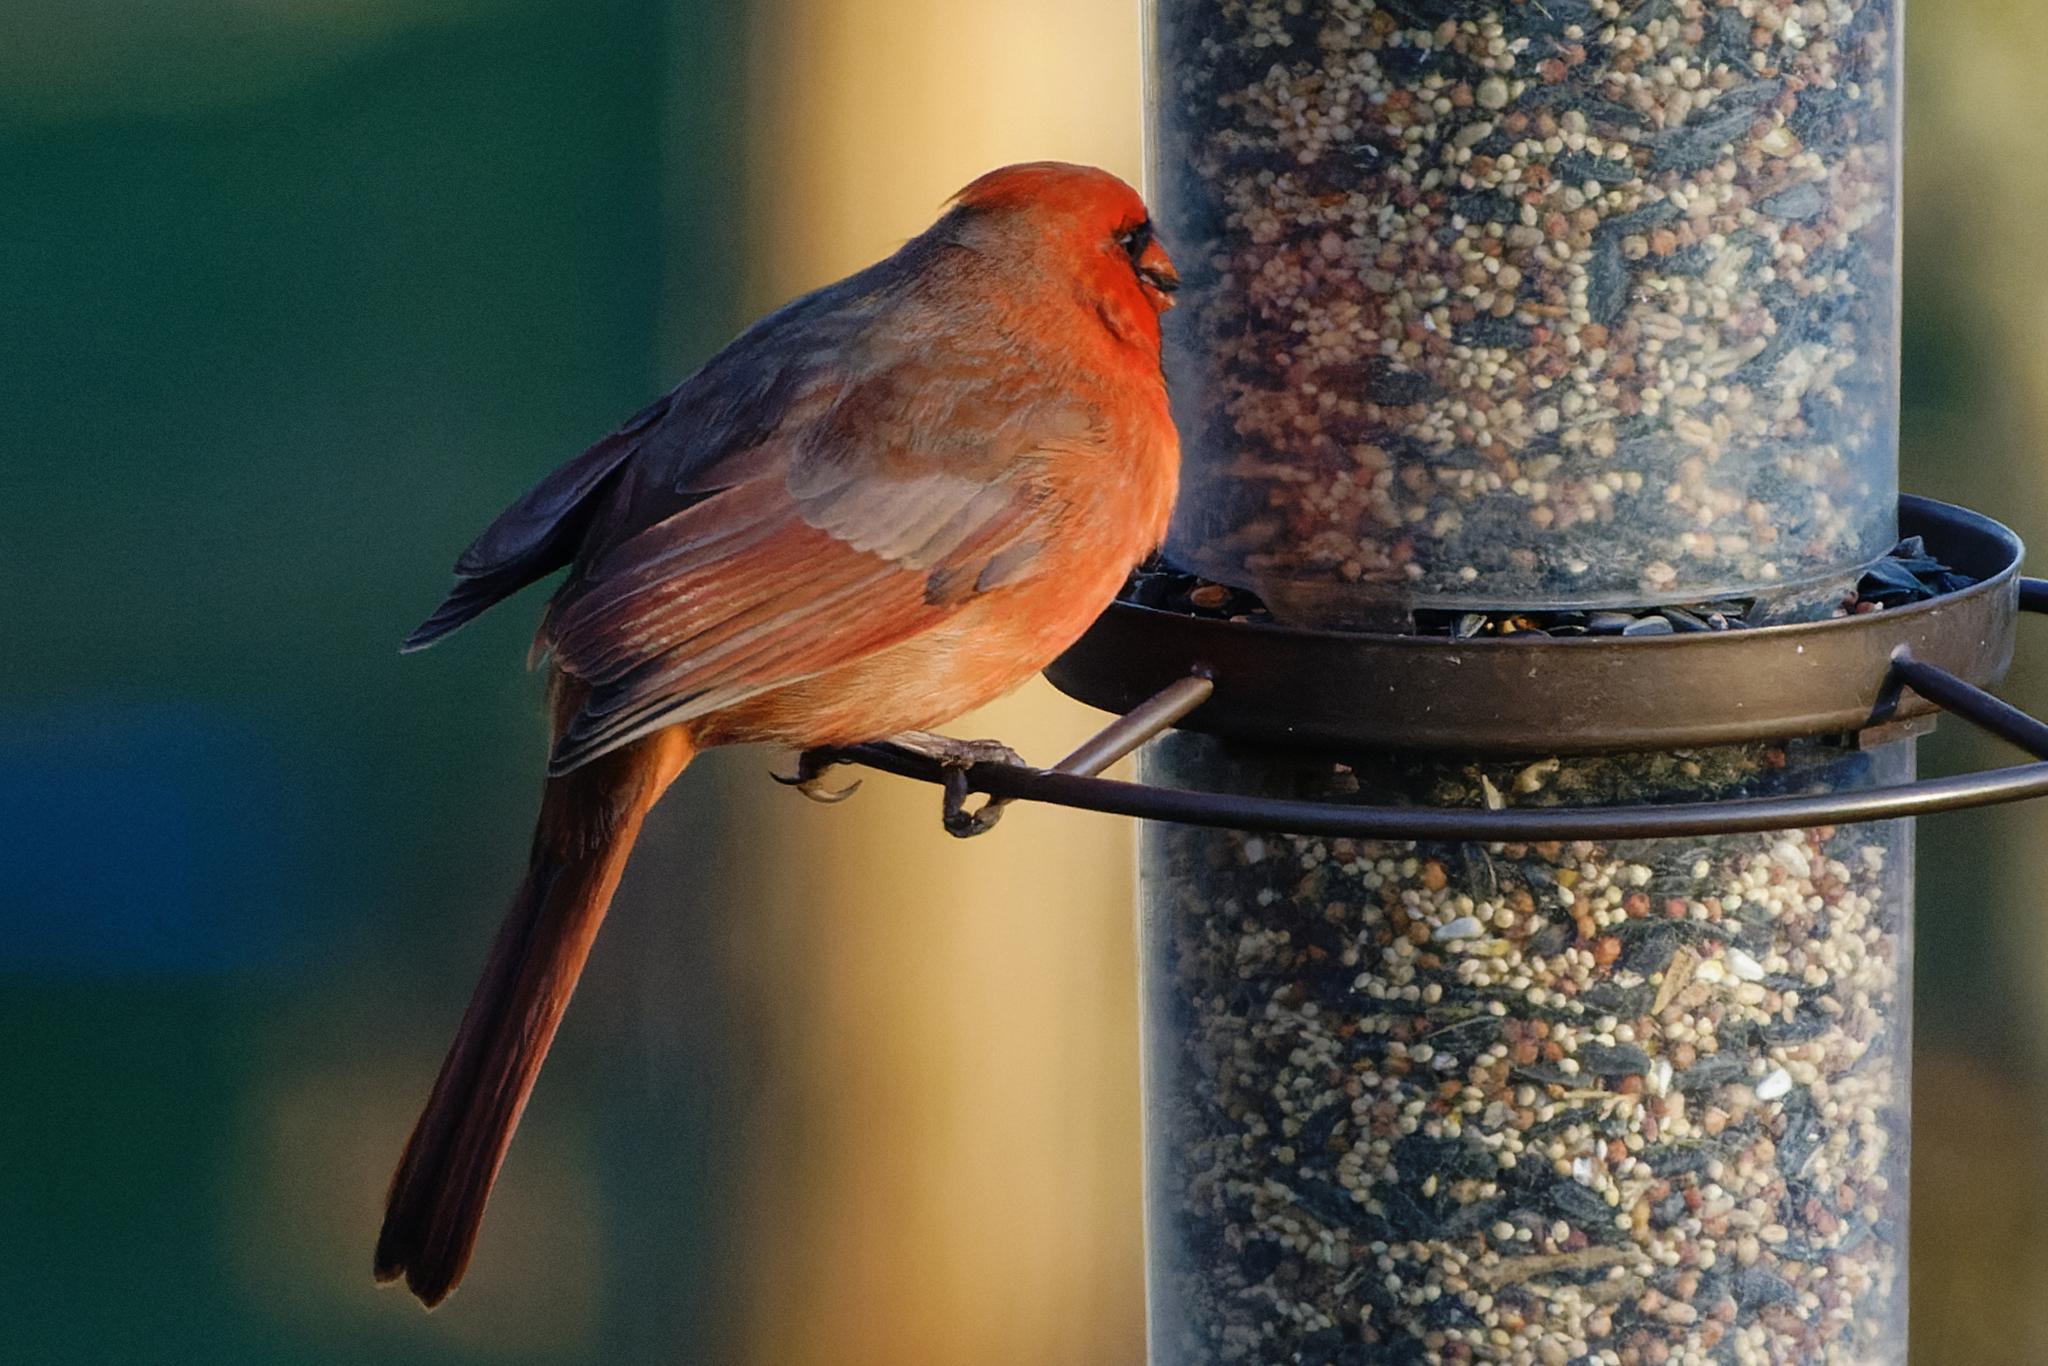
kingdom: Animalia
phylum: Chordata
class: Aves
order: Passeriformes
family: Cardinalidae
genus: Cardinalis
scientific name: Cardinalis cardinalis
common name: Northern cardinal
